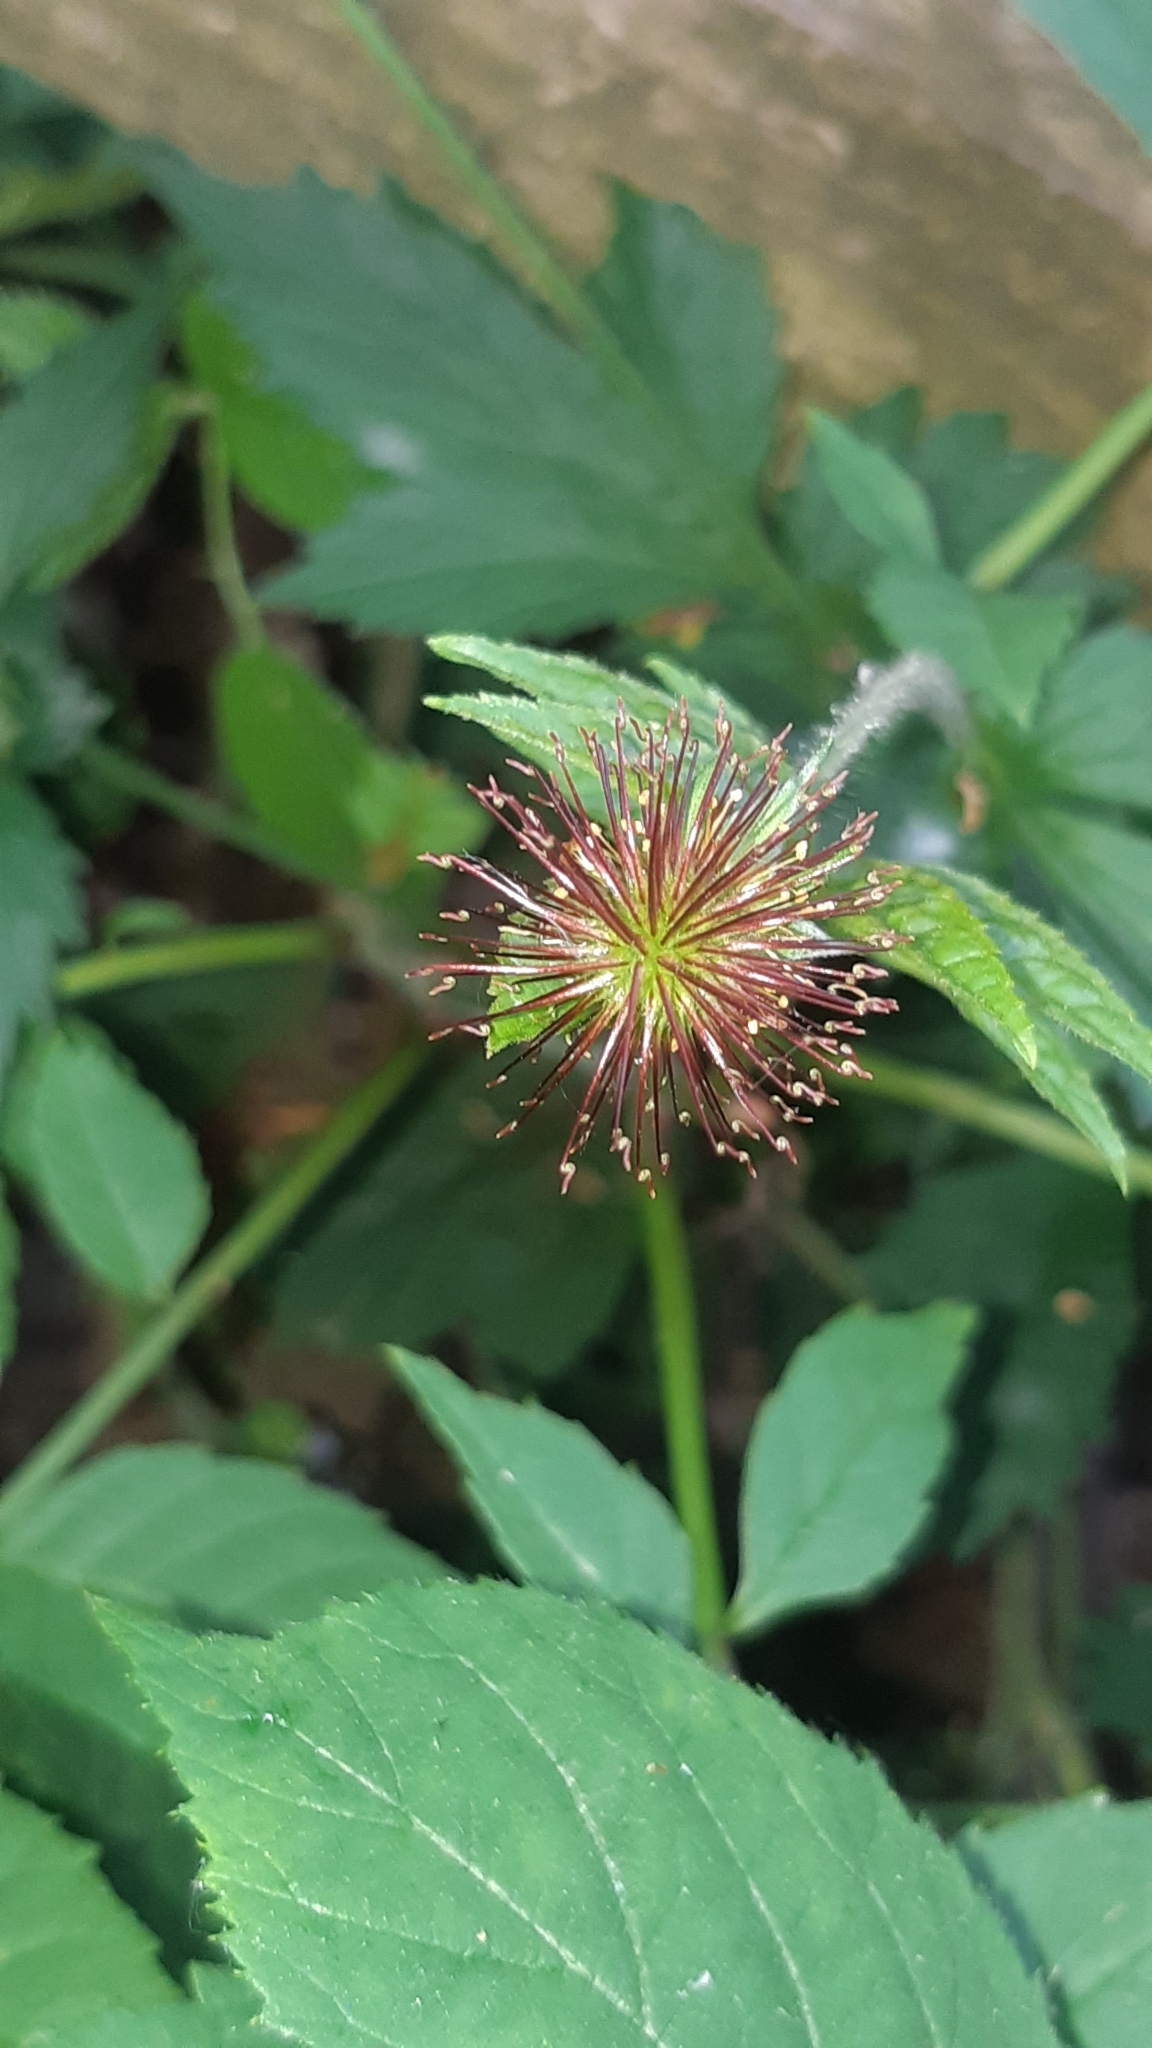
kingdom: Plantae
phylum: Tracheophyta
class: Magnoliopsida
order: Rosales
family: Rosaceae
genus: Geum
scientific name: Geum urbanum
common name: Wood avens
